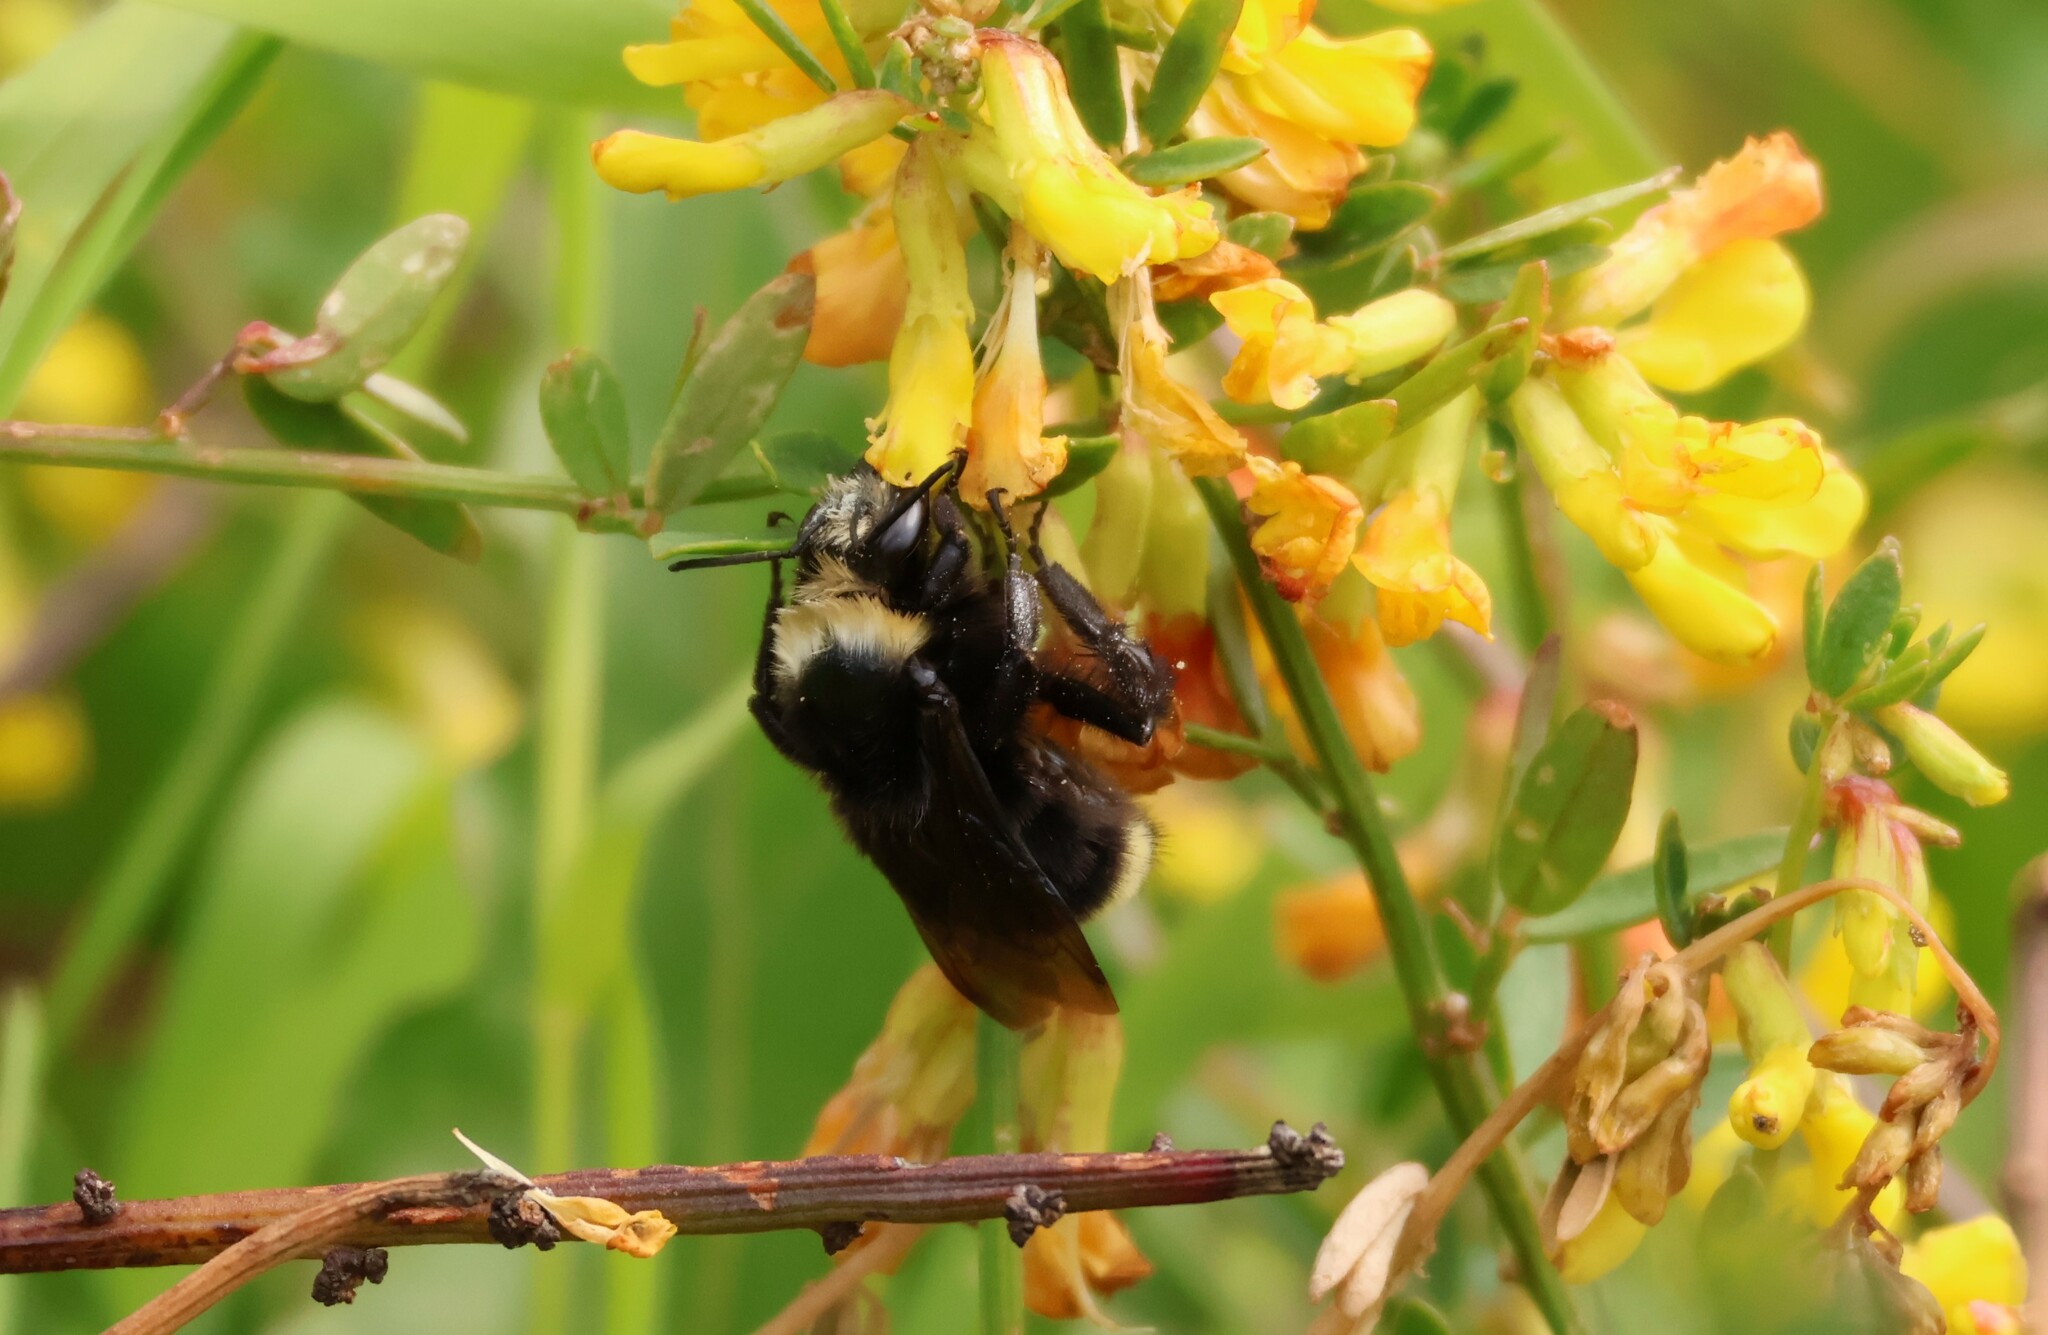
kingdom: Animalia
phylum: Arthropoda
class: Insecta
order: Hymenoptera
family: Apidae
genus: Bombus
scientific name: Bombus vosnesenskii
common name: Vosnesensky bumble bee
